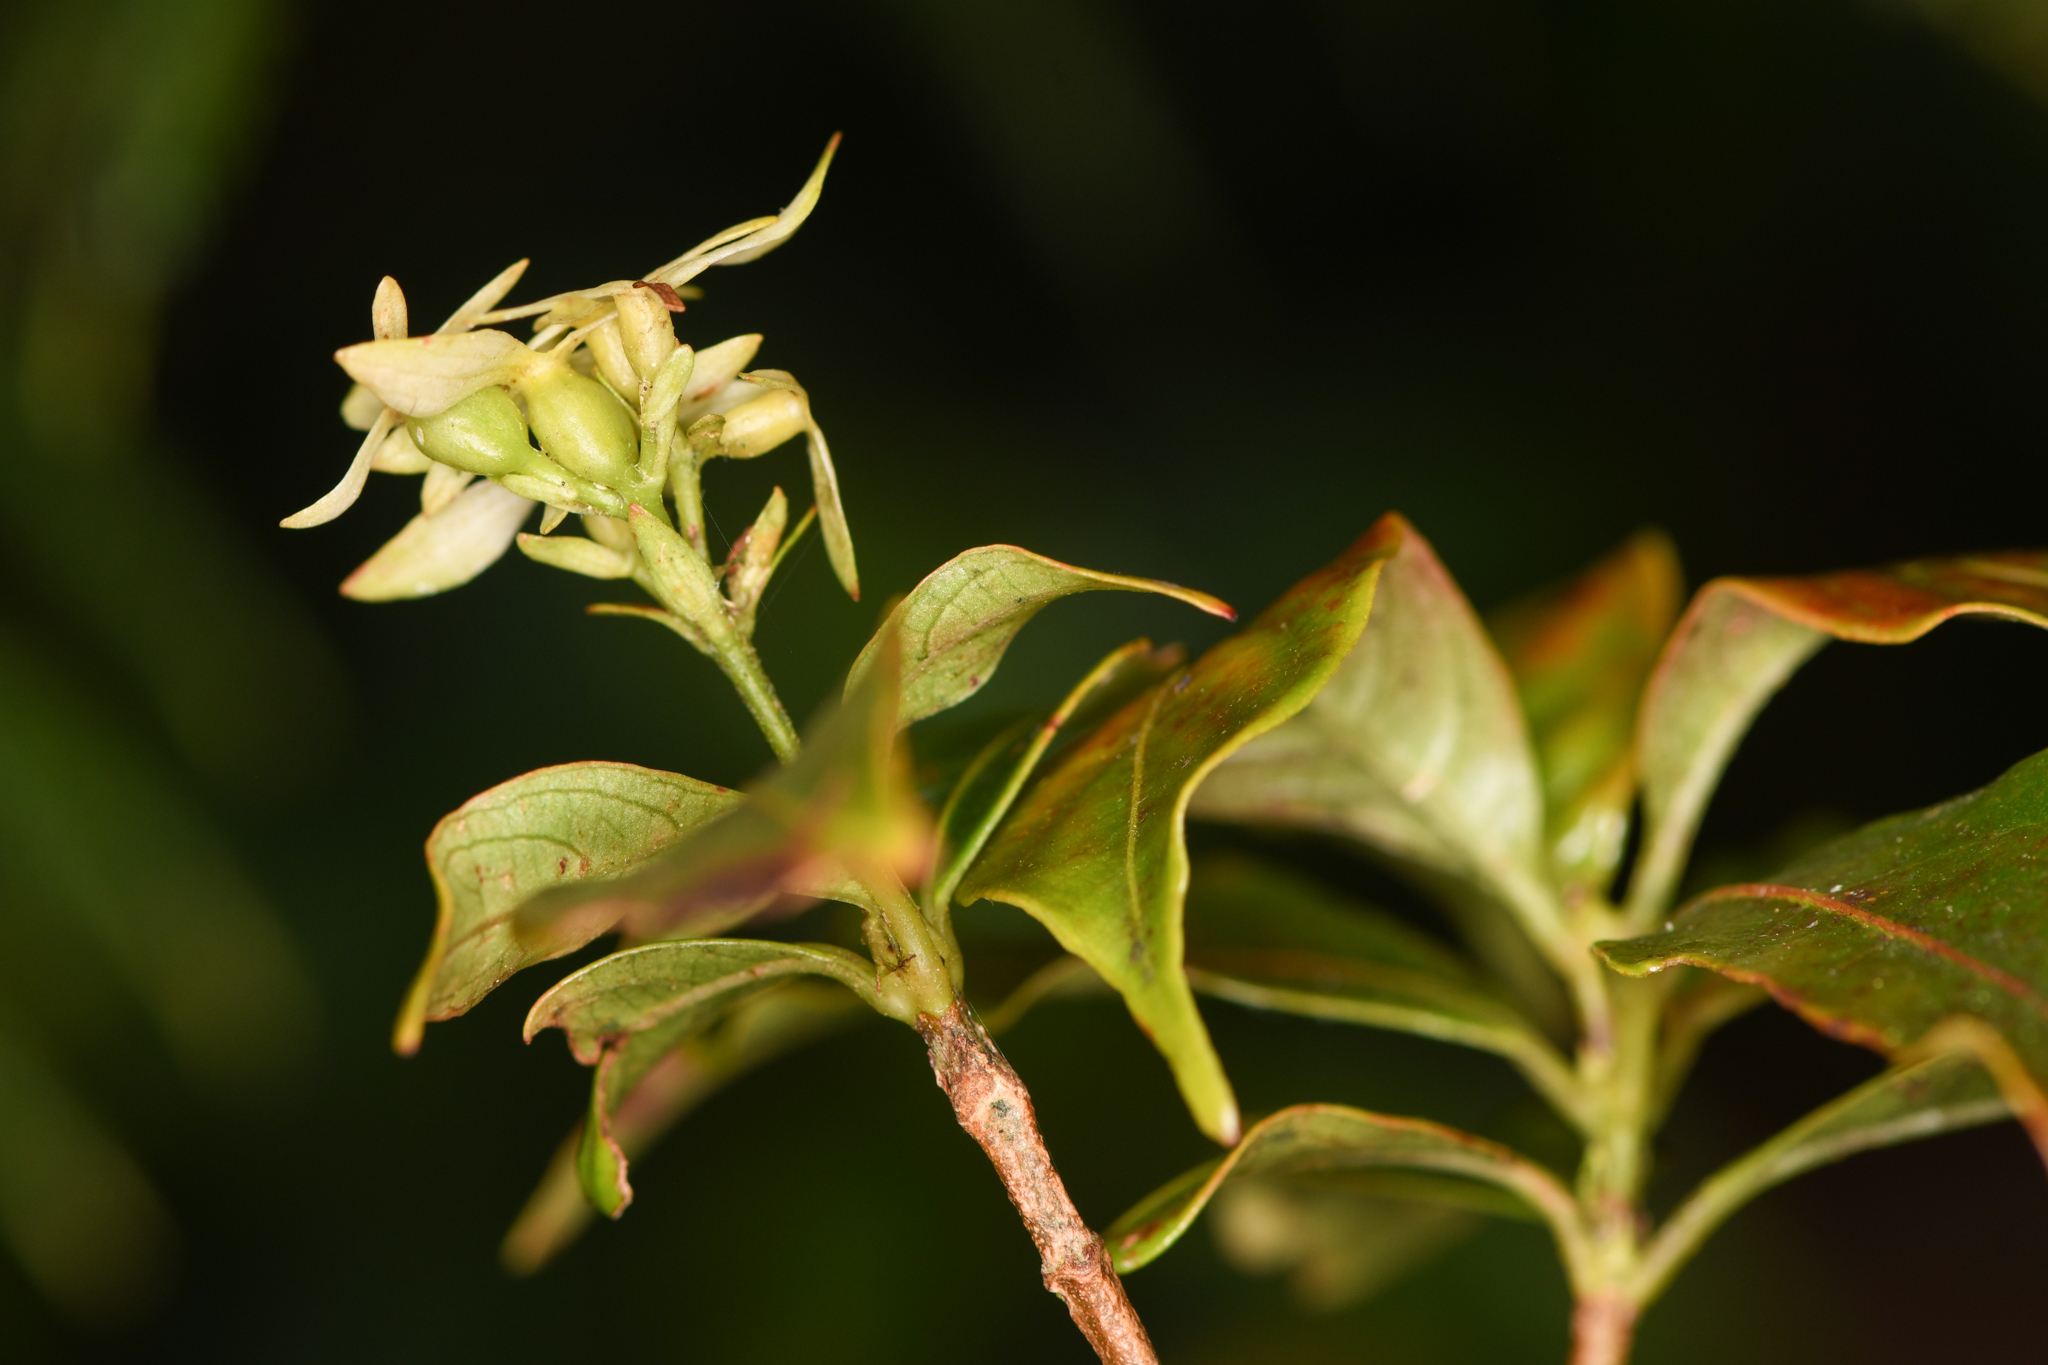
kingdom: Plantae
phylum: Tracheophyta
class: Magnoliopsida
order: Gentianales
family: Rubiaceae
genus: Arachnothryx
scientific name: Arachnothryx monteverdensis
